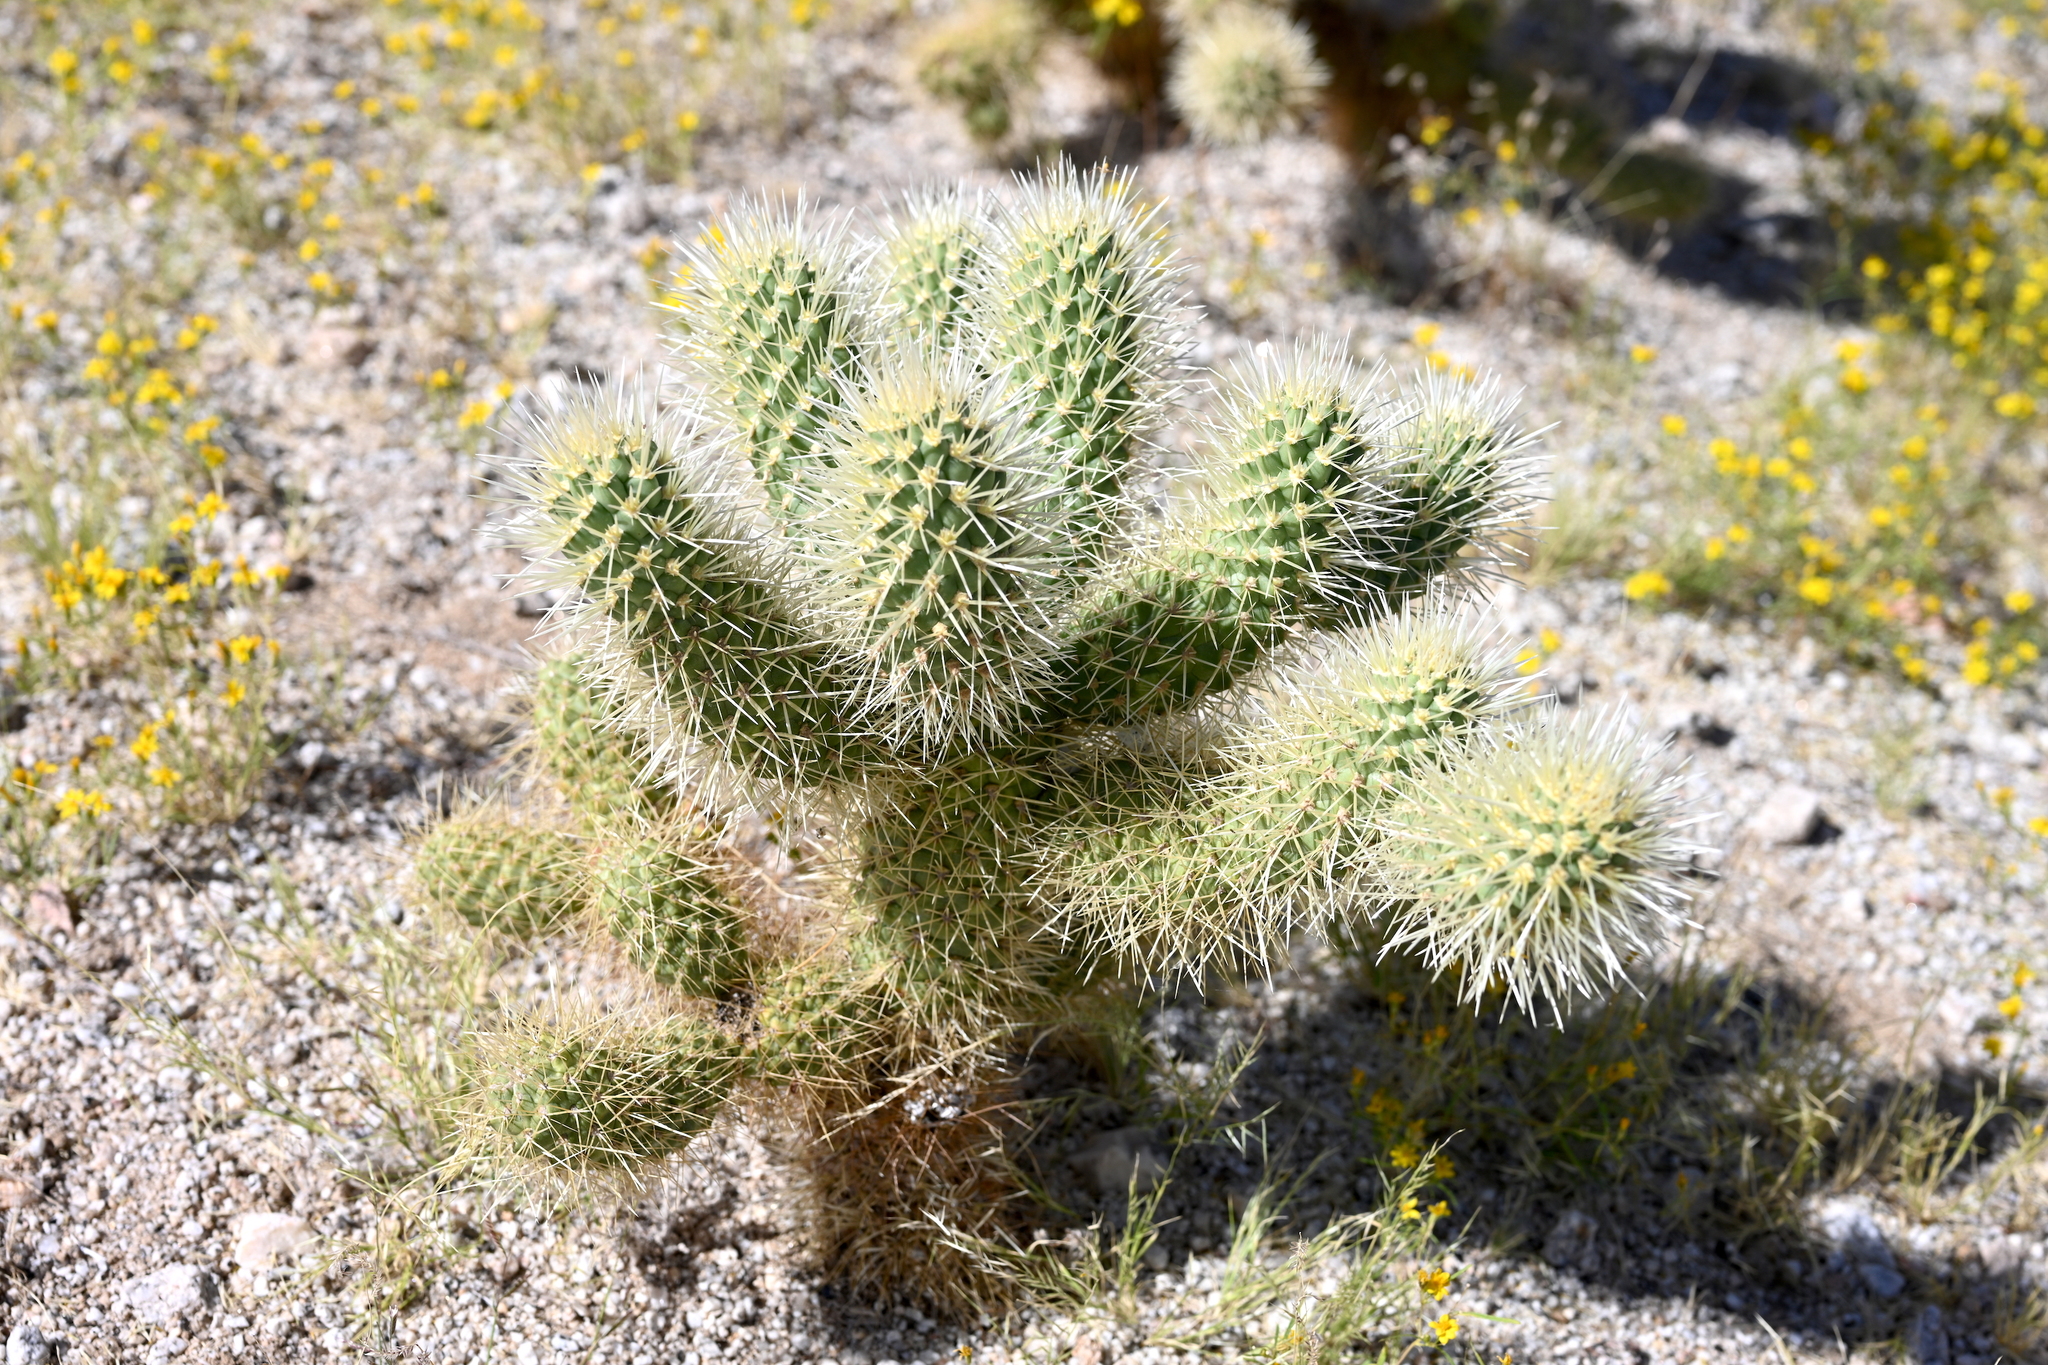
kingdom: Plantae
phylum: Tracheophyta
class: Magnoliopsida
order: Caryophyllales
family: Cactaceae
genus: Cylindropuntia
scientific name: Cylindropuntia fosbergii
